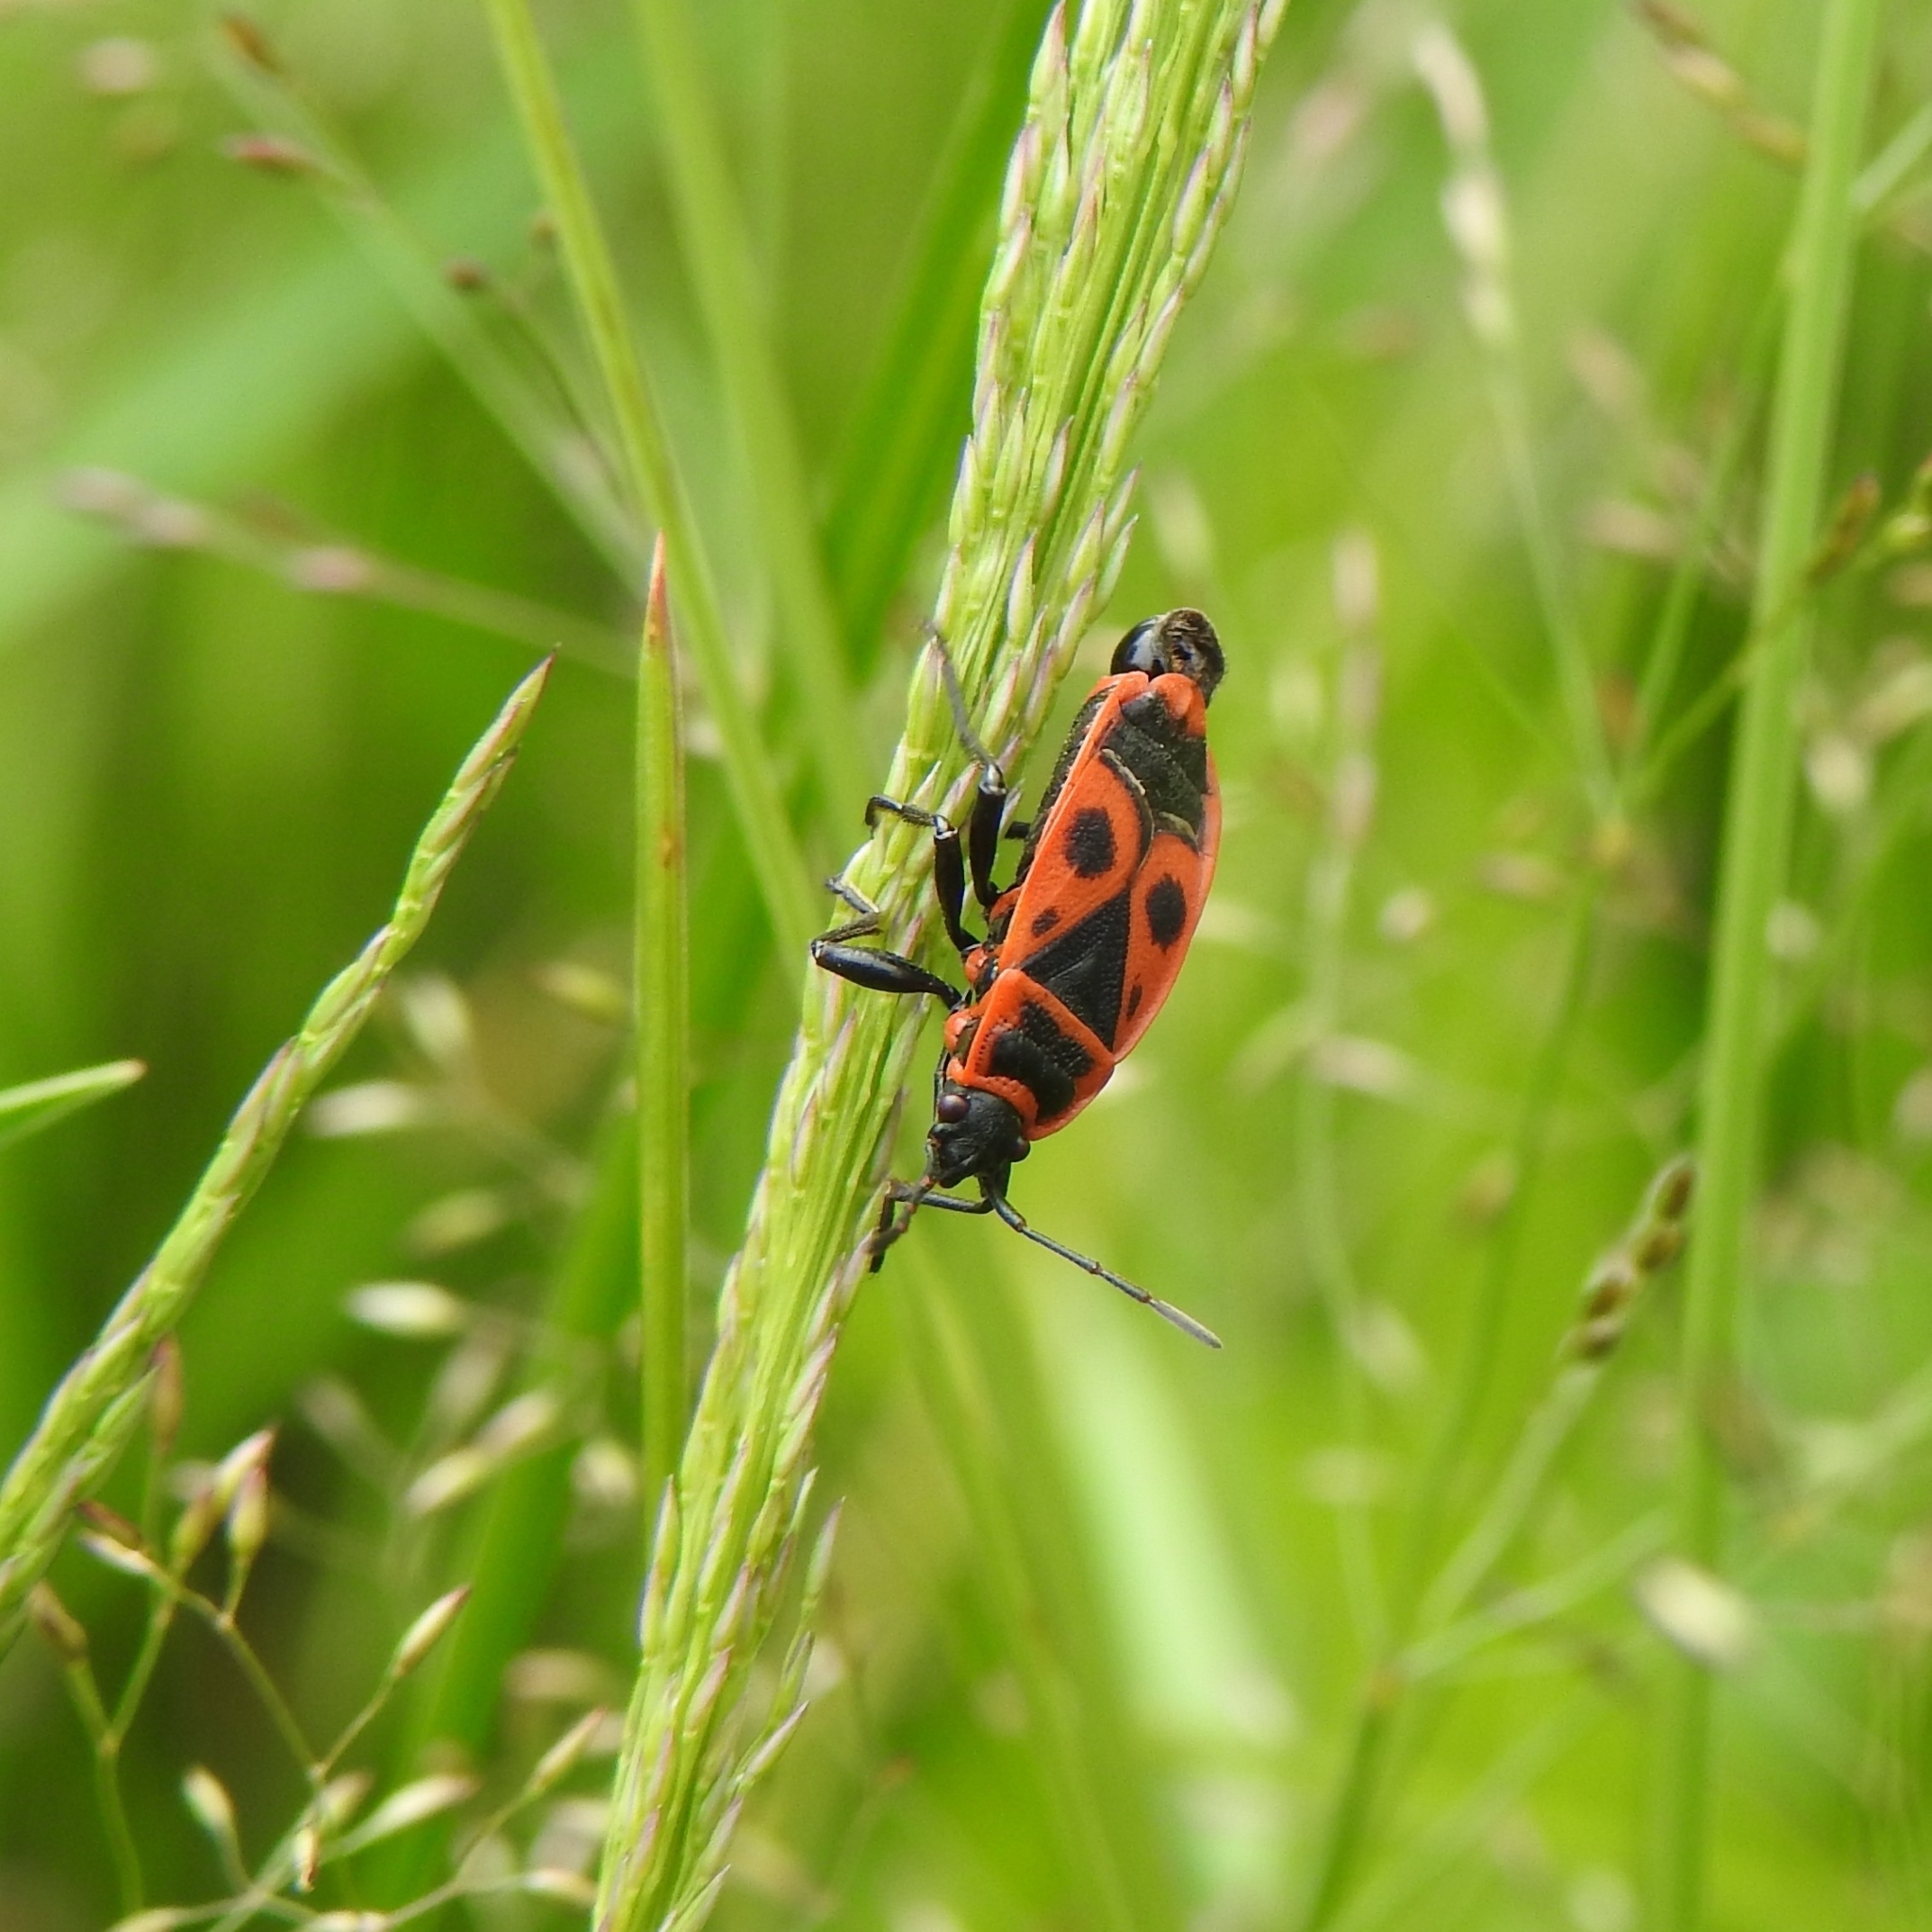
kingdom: Animalia
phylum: Arthropoda
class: Insecta
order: Hemiptera
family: Pyrrhocoridae
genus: Pyrrhocoris
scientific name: Pyrrhocoris apterus
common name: Firebug
